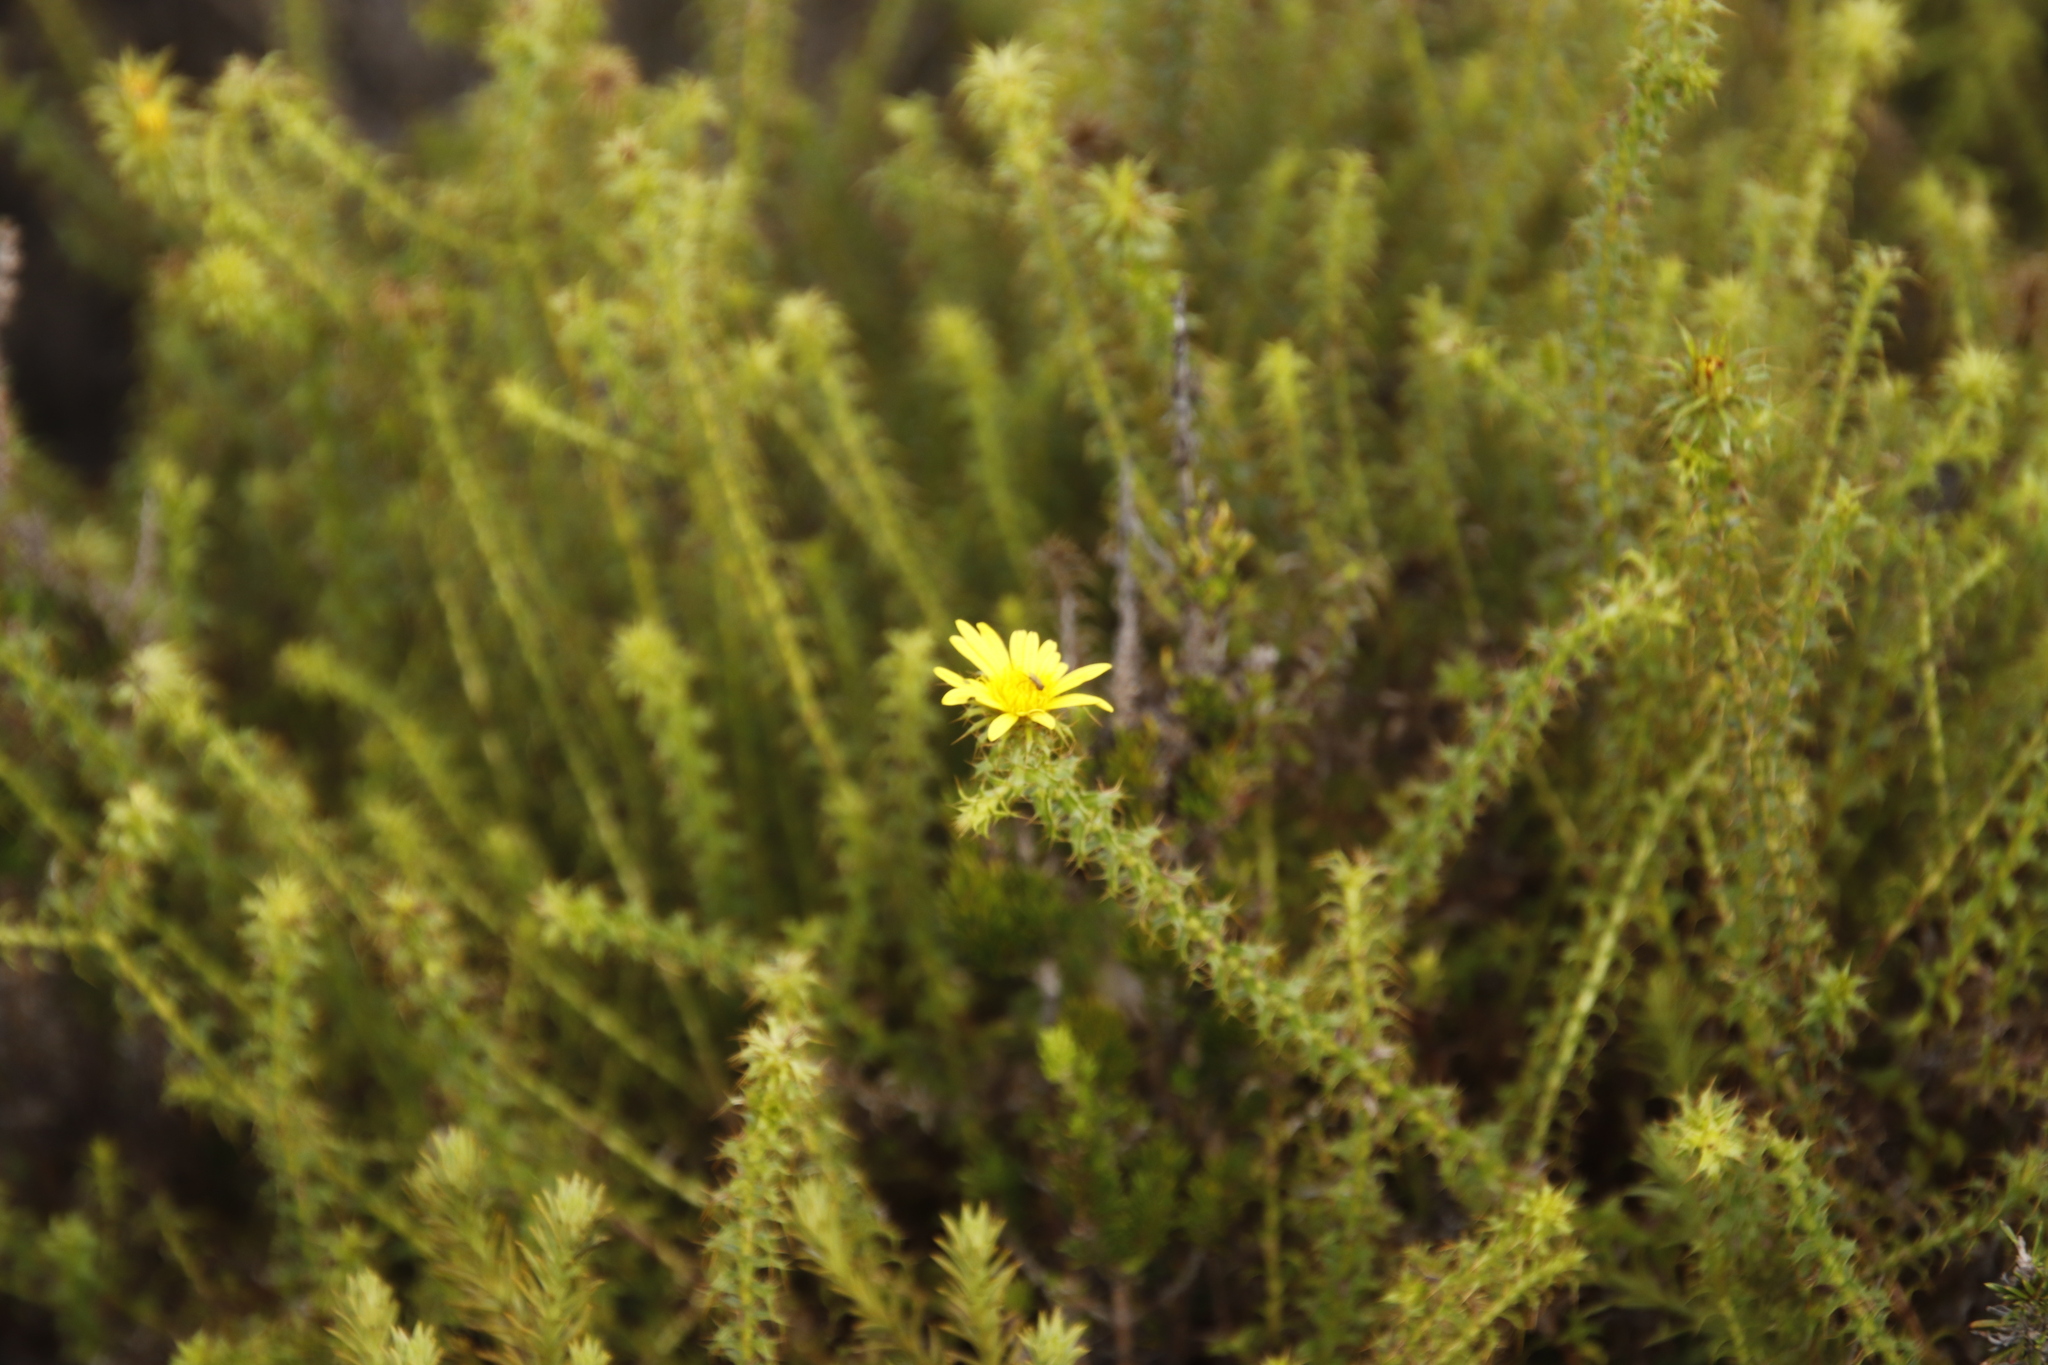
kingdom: Plantae
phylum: Tracheophyta
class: Magnoliopsida
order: Asterales
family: Asteraceae
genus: Cullumia
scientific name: Cullumia setosa
